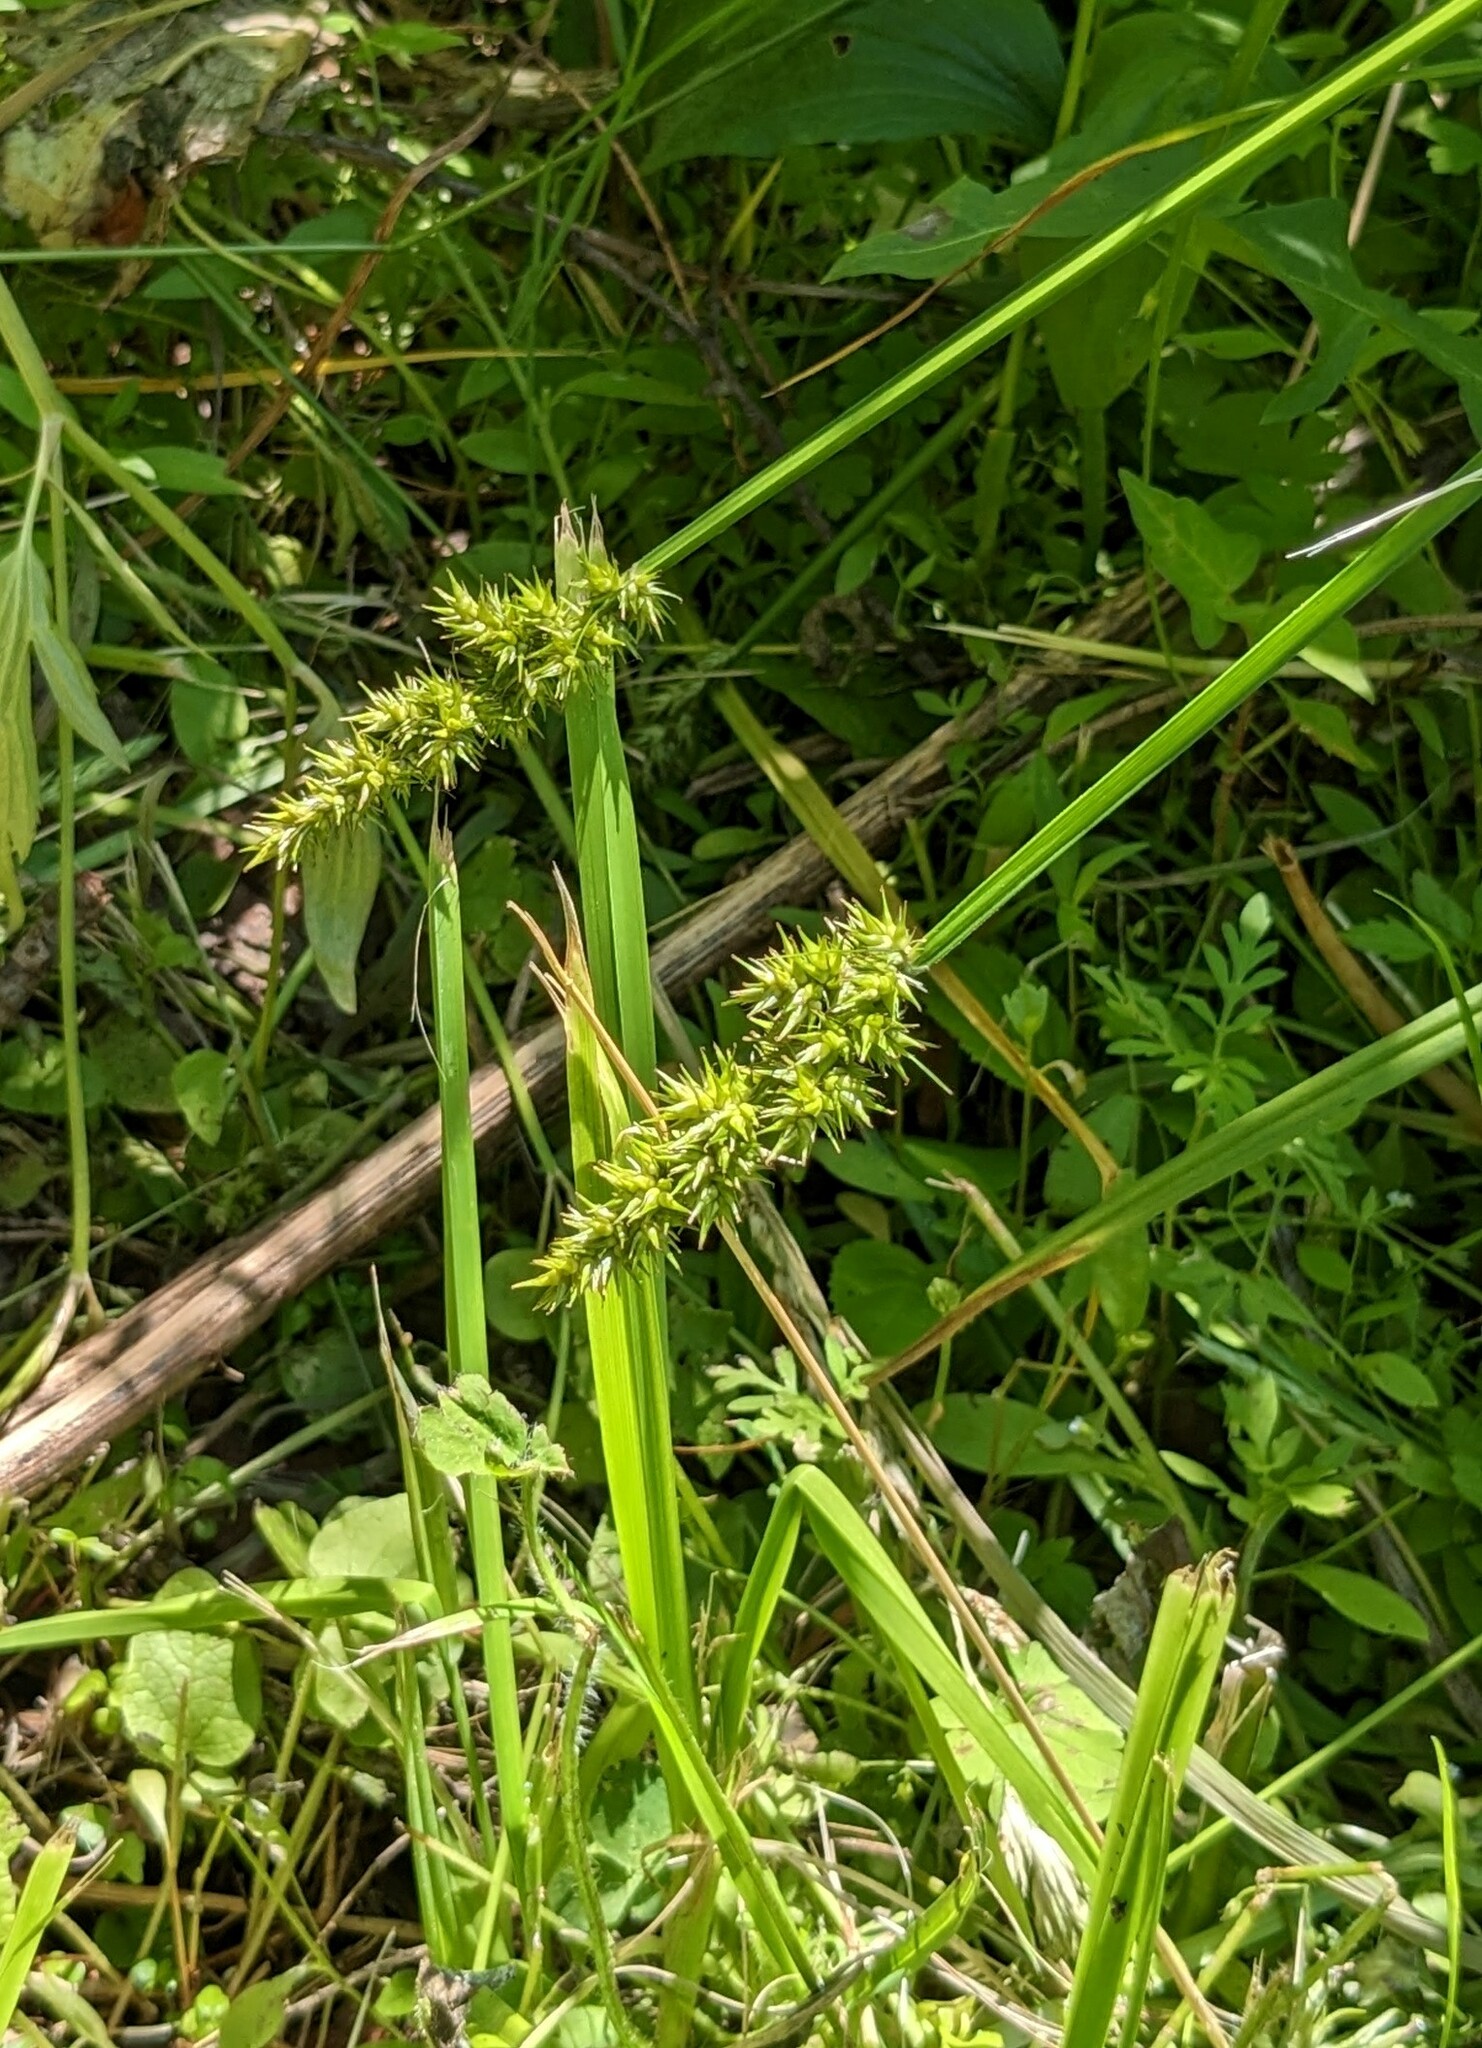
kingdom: Plantae
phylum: Tracheophyta
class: Liliopsida
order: Poales
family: Cyperaceae
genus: Carex
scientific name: Carex stipata
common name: Awl-fruited sedge
